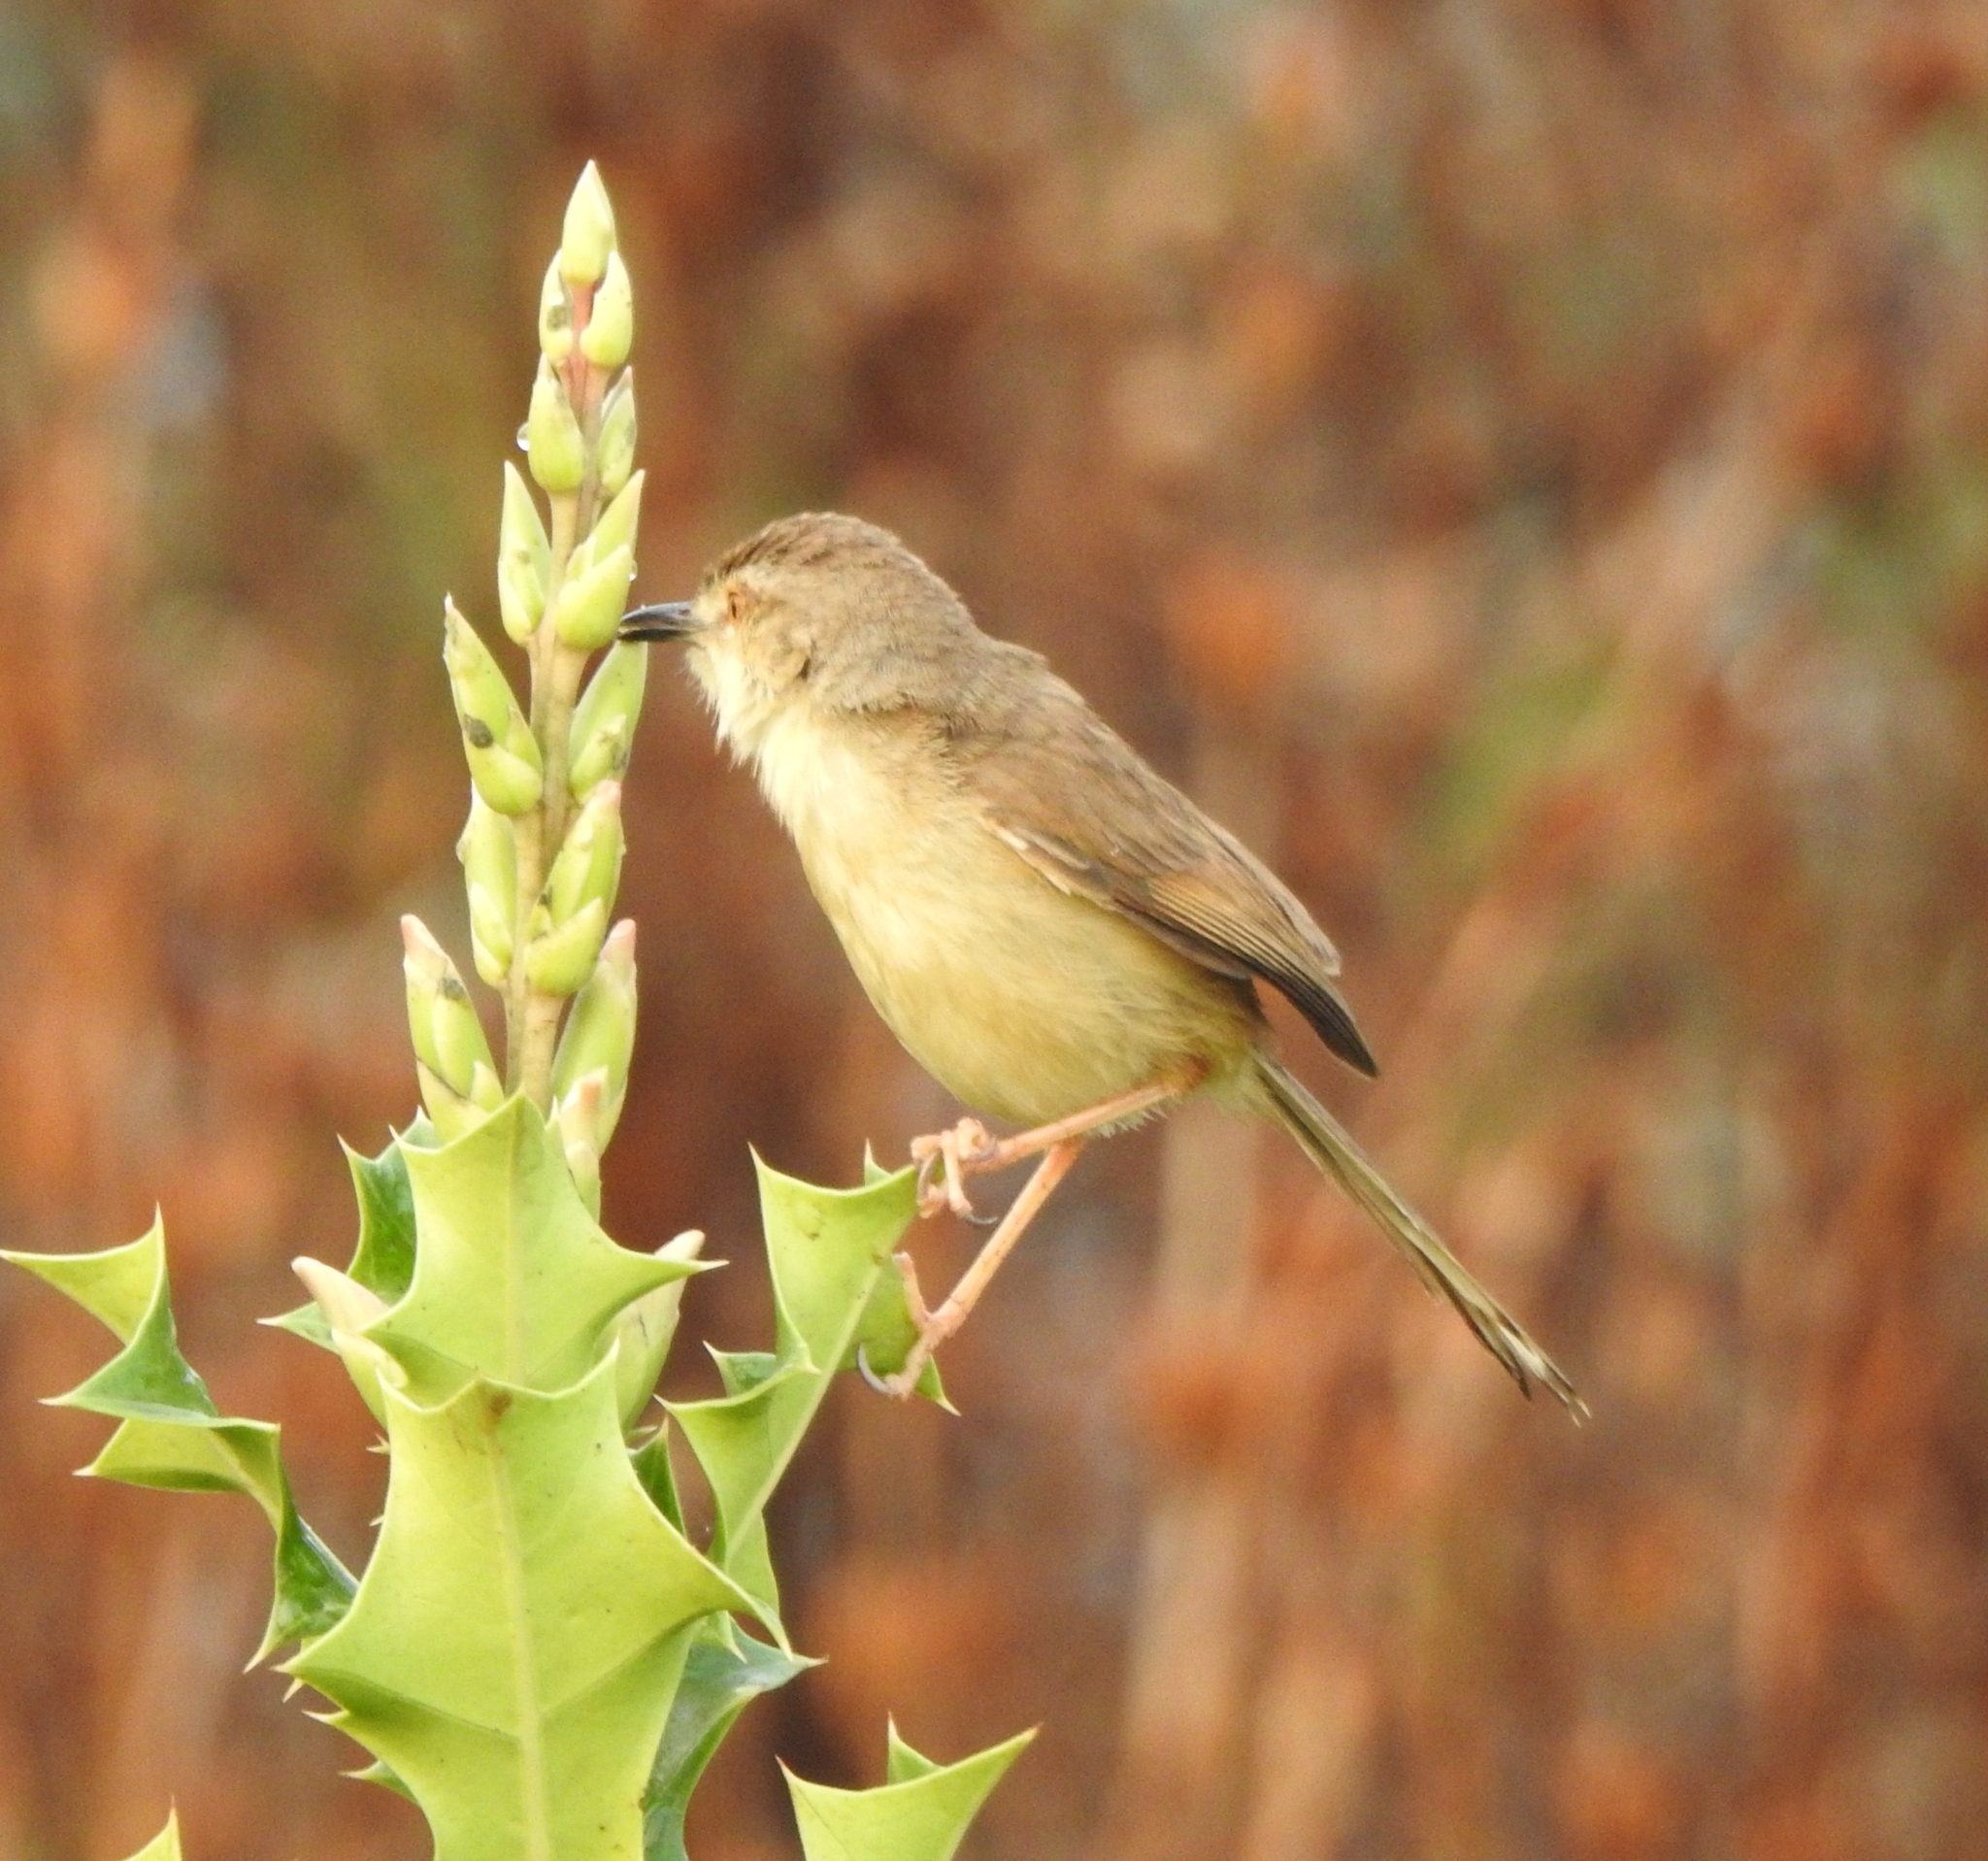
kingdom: Animalia
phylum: Chordata
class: Aves
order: Passeriformes
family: Cisticolidae
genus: Prinia
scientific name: Prinia inornata
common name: Plain prinia
